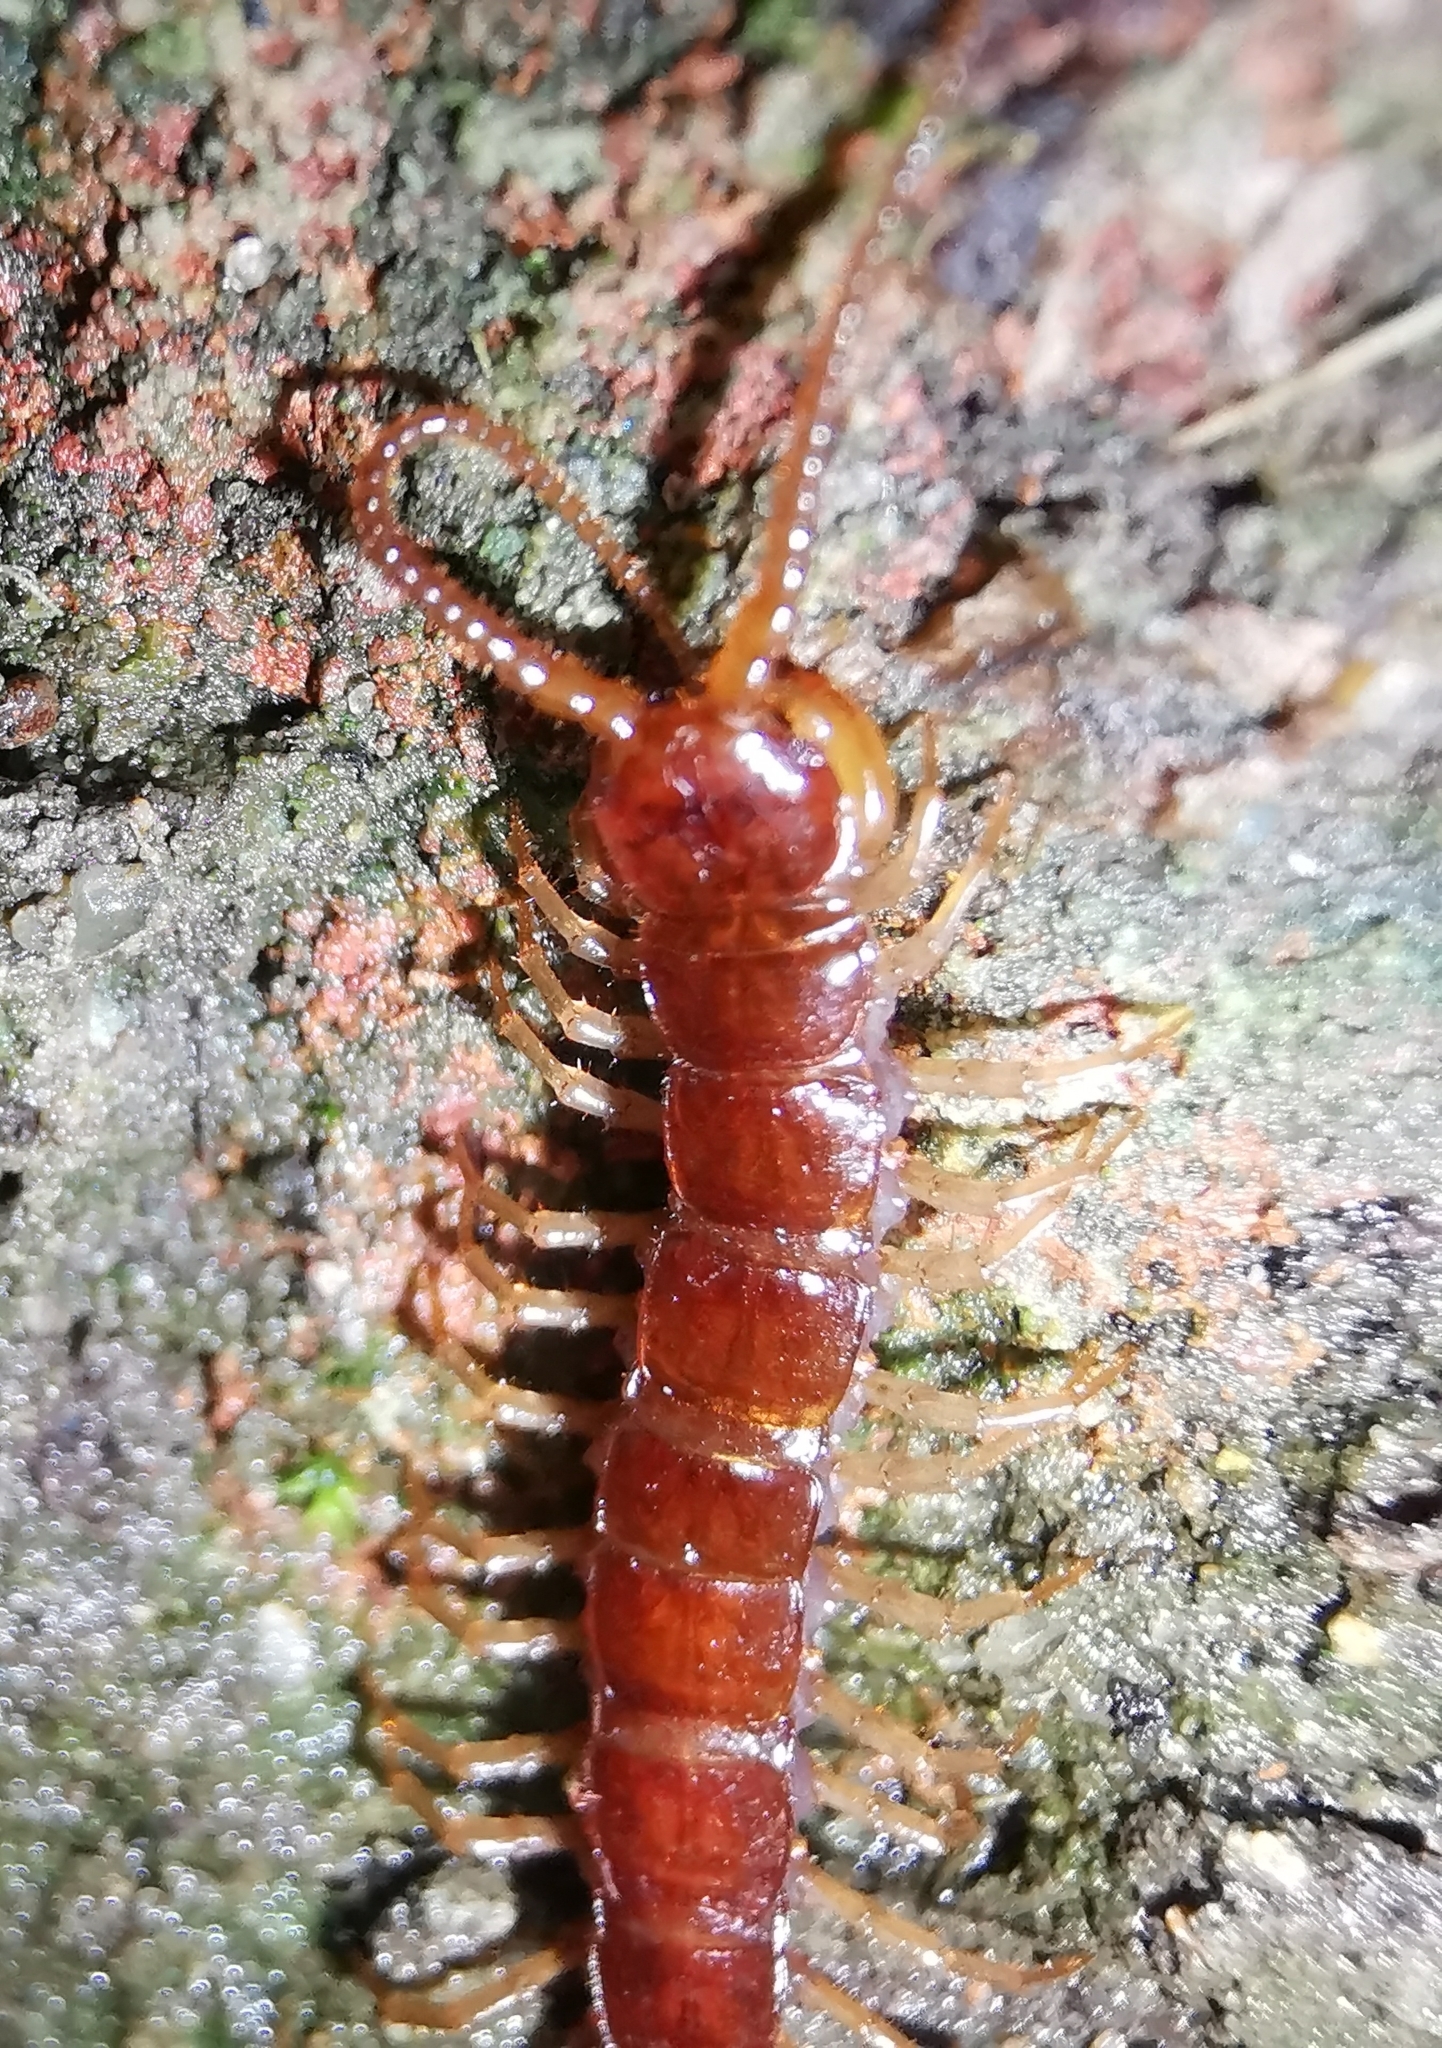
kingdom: Animalia
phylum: Arthropoda
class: Chilopoda
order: Lithobiomorpha
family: Lithobiidae
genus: Lithobius
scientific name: Lithobius forficatus
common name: Centipede
